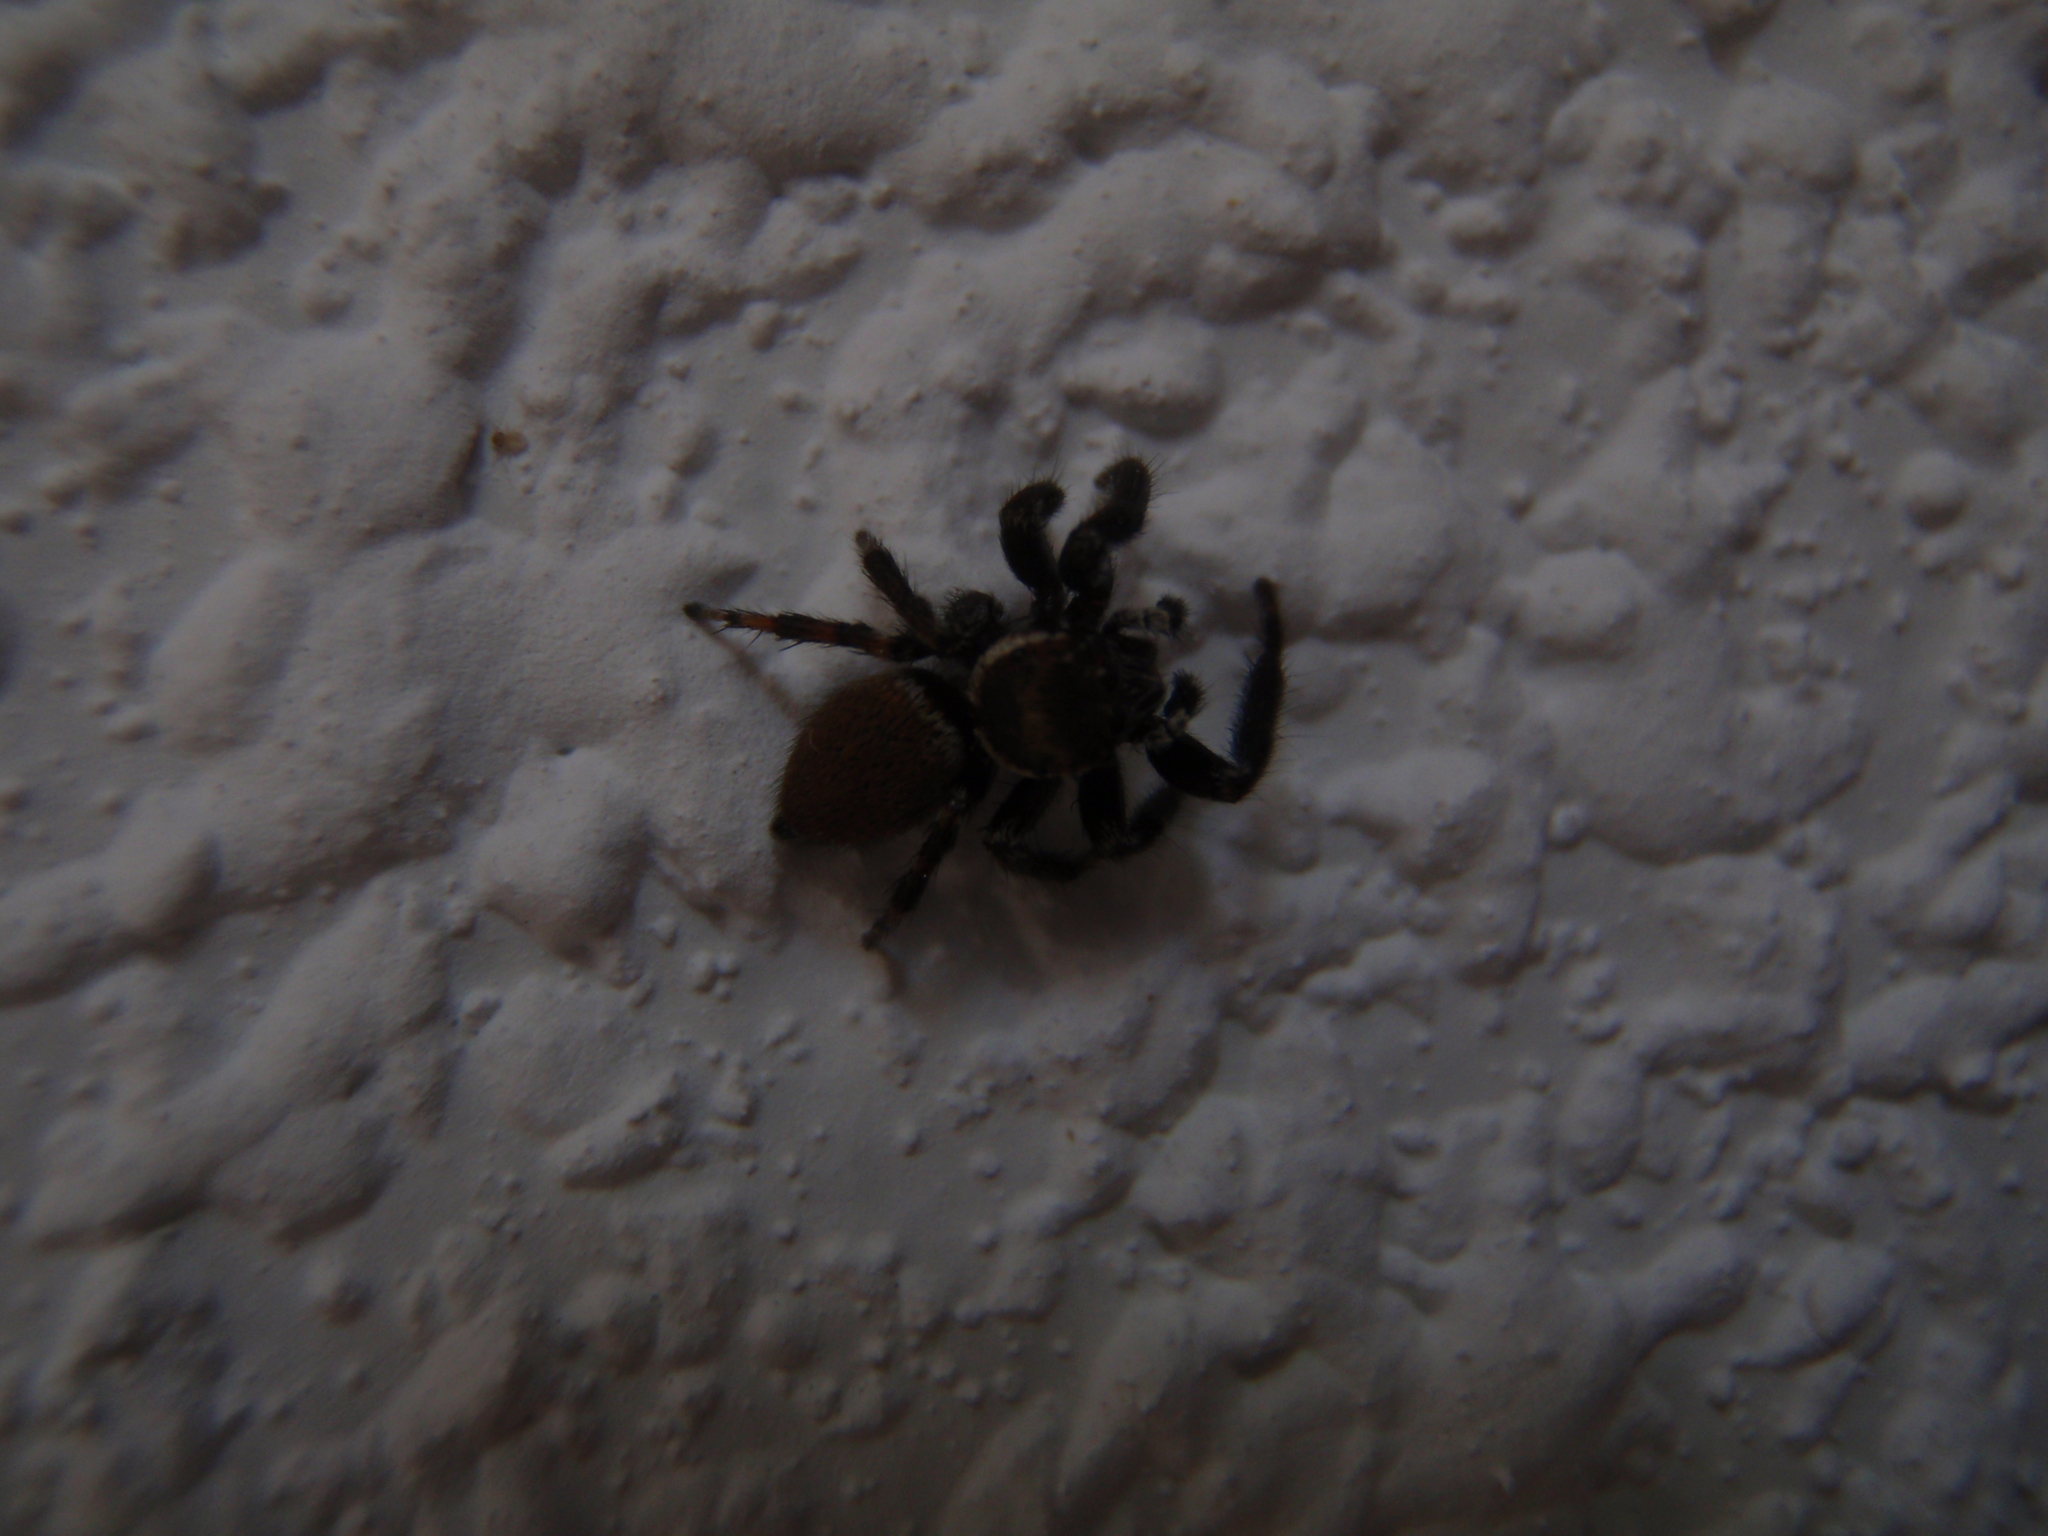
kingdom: Animalia
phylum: Arthropoda
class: Arachnida
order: Araneae
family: Salticidae
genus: Evarcha
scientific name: Evarcha jucunda
